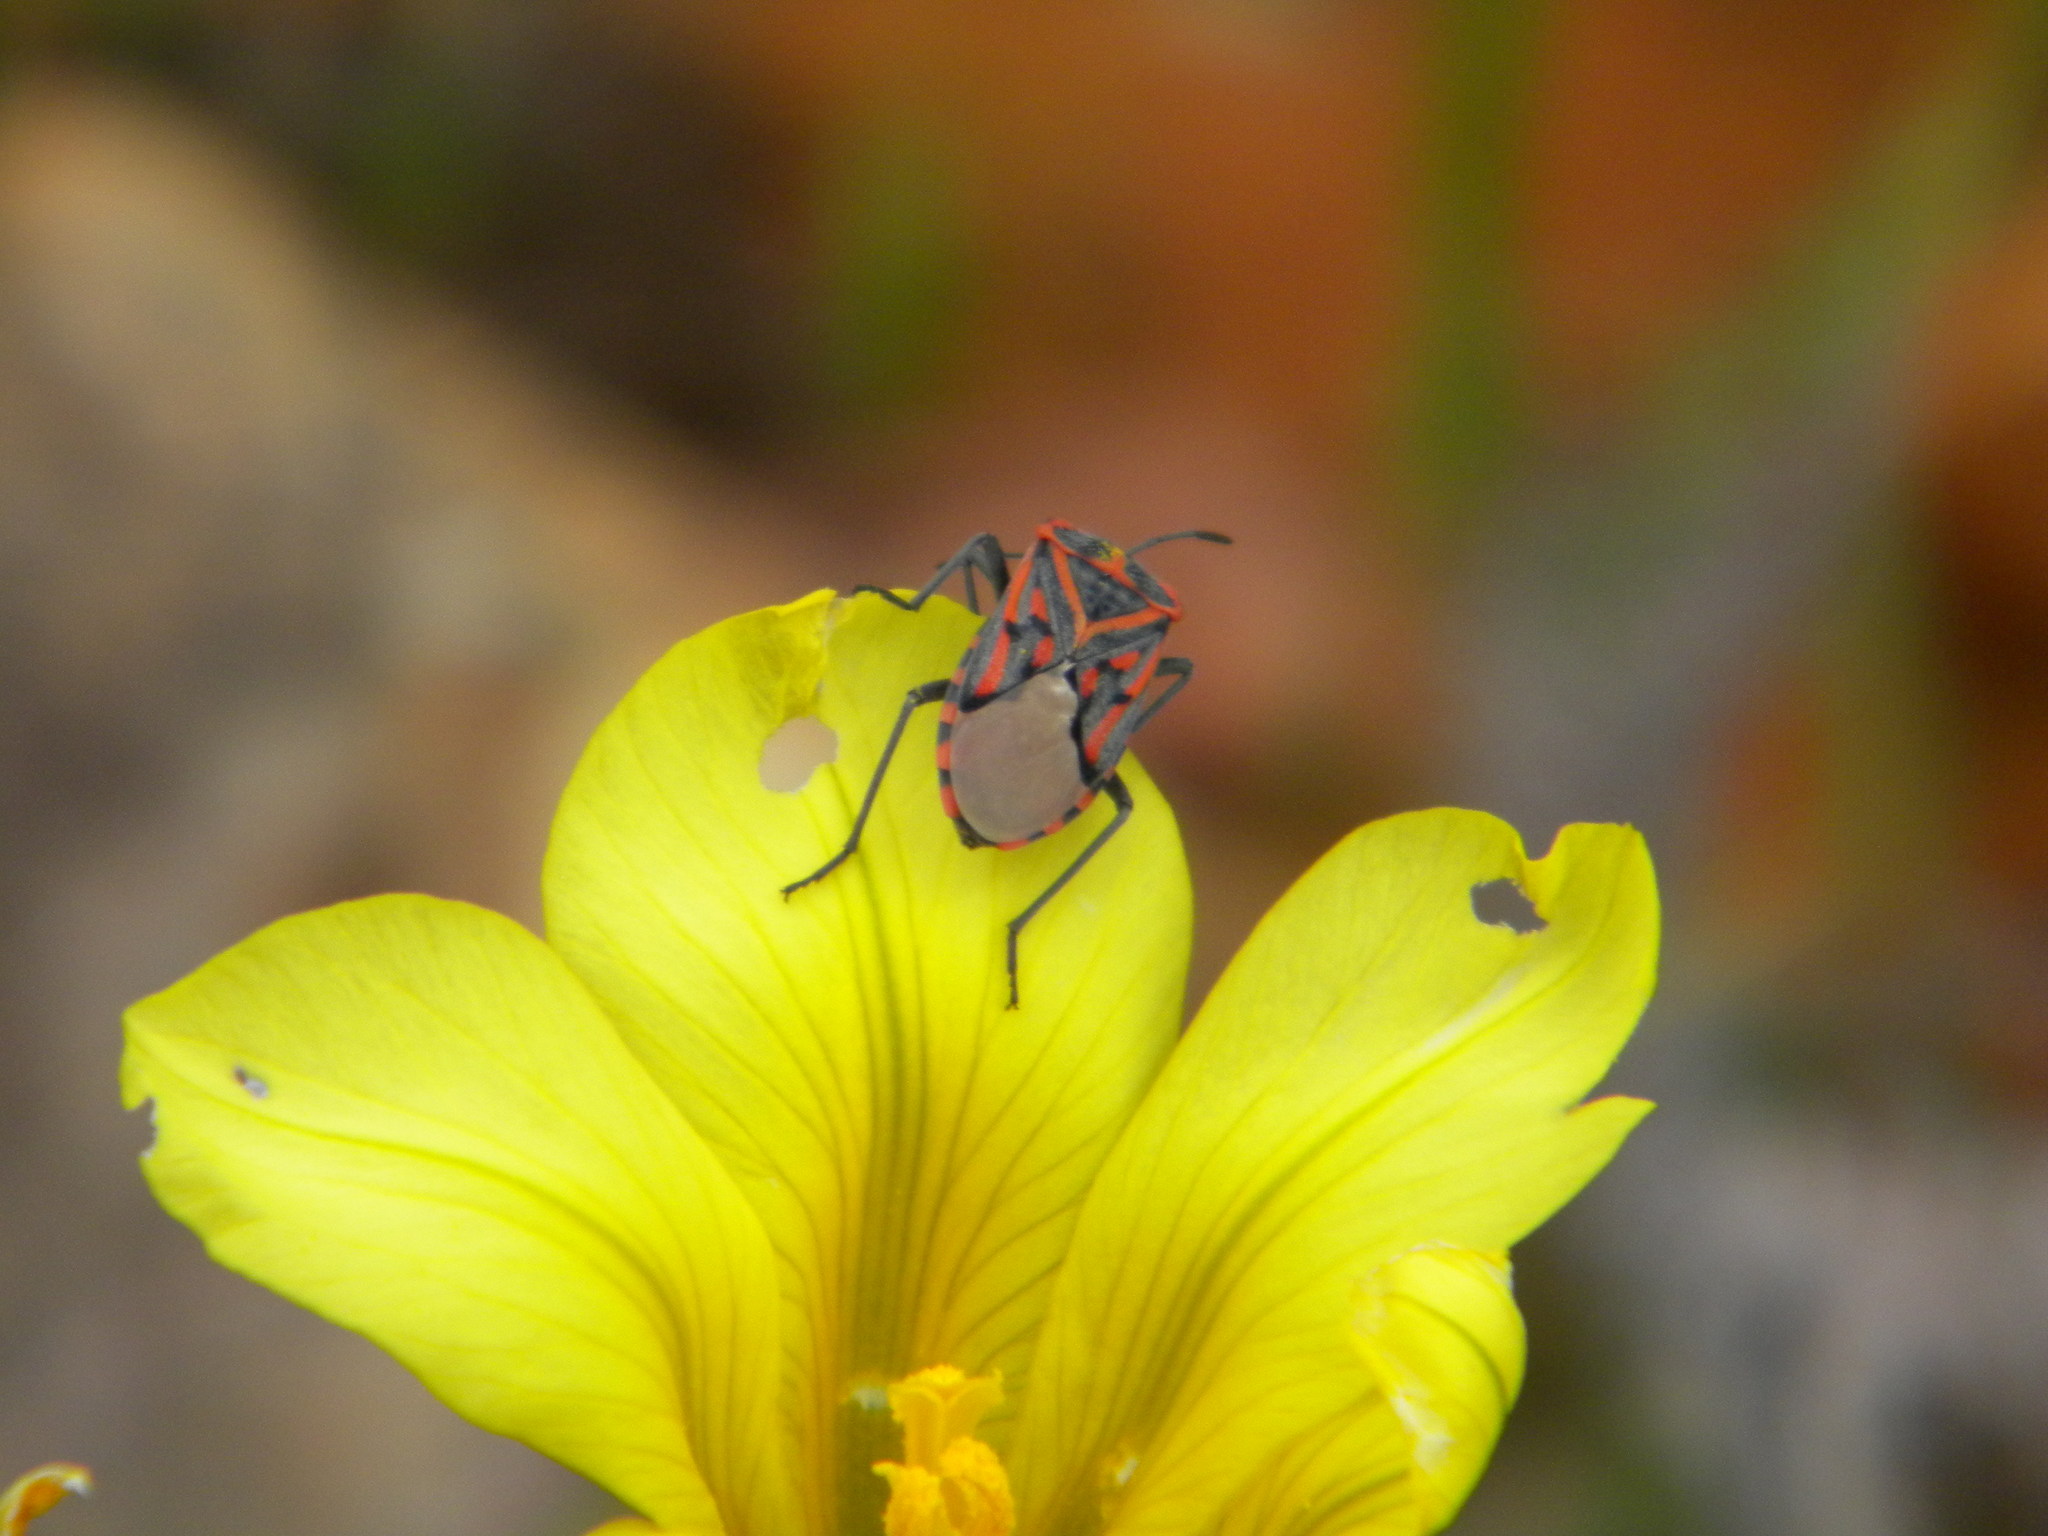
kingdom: Animalia
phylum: Arthropoda
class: Insecta
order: Hemiptera
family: Lygaeidae
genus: Spilostethus
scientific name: Spilostethus crudelis
